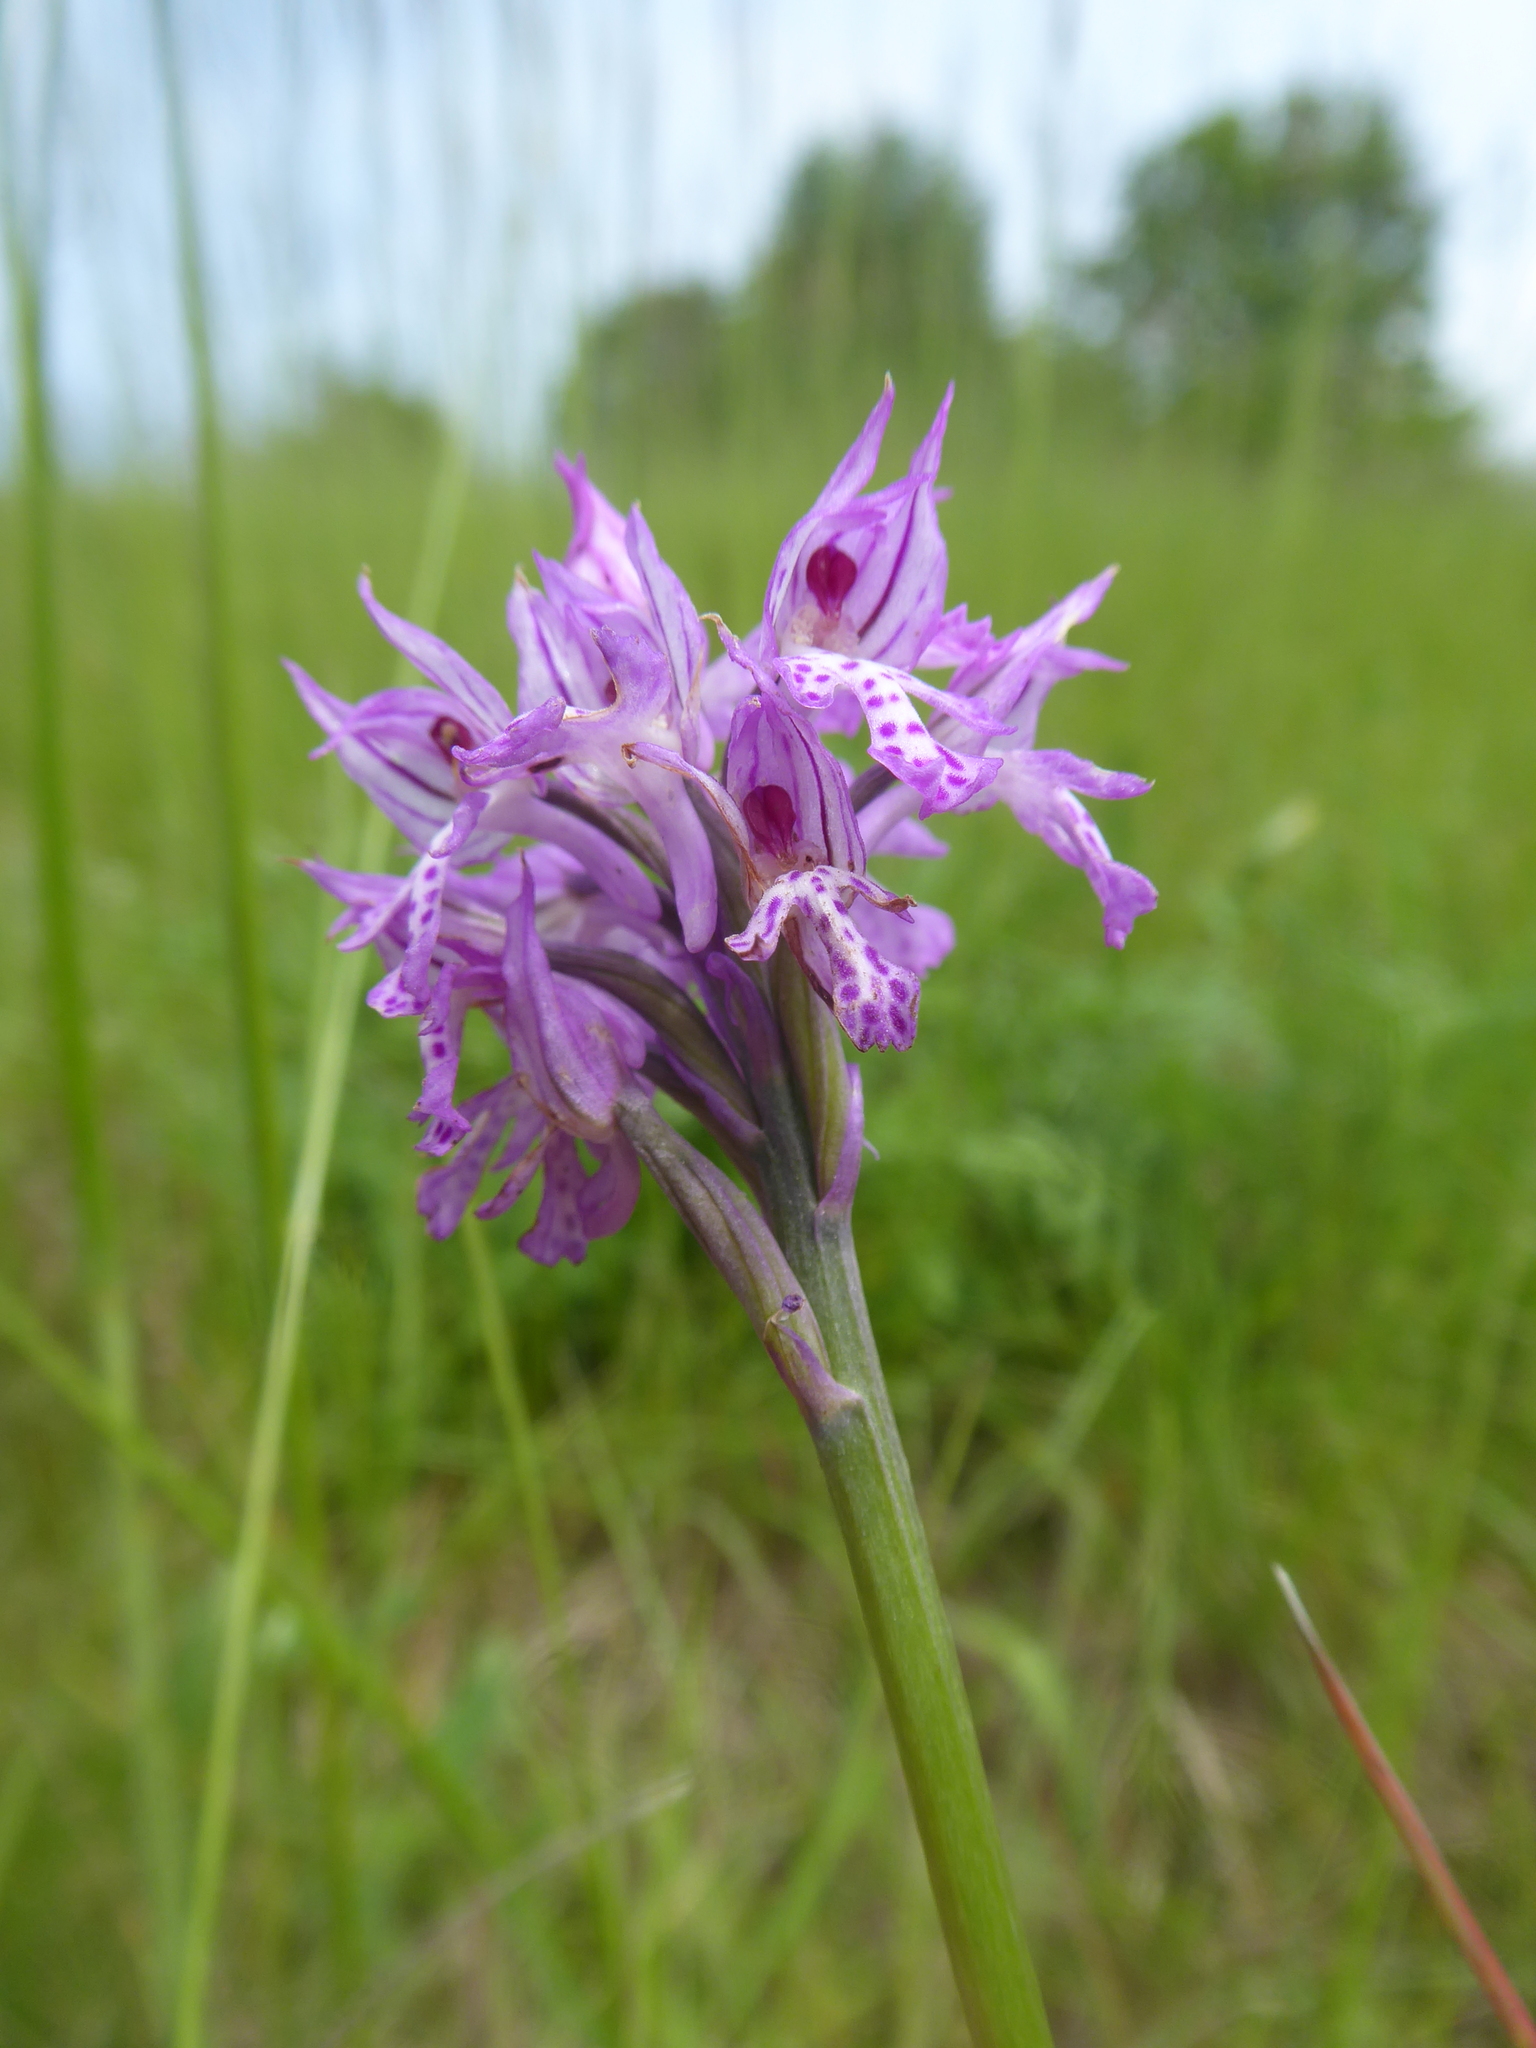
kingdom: Plantae
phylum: Tracheophyta
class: Liliopsida
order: Asparagales
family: Orchidaceae
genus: Neotinea
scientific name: Neotinea tridentata
